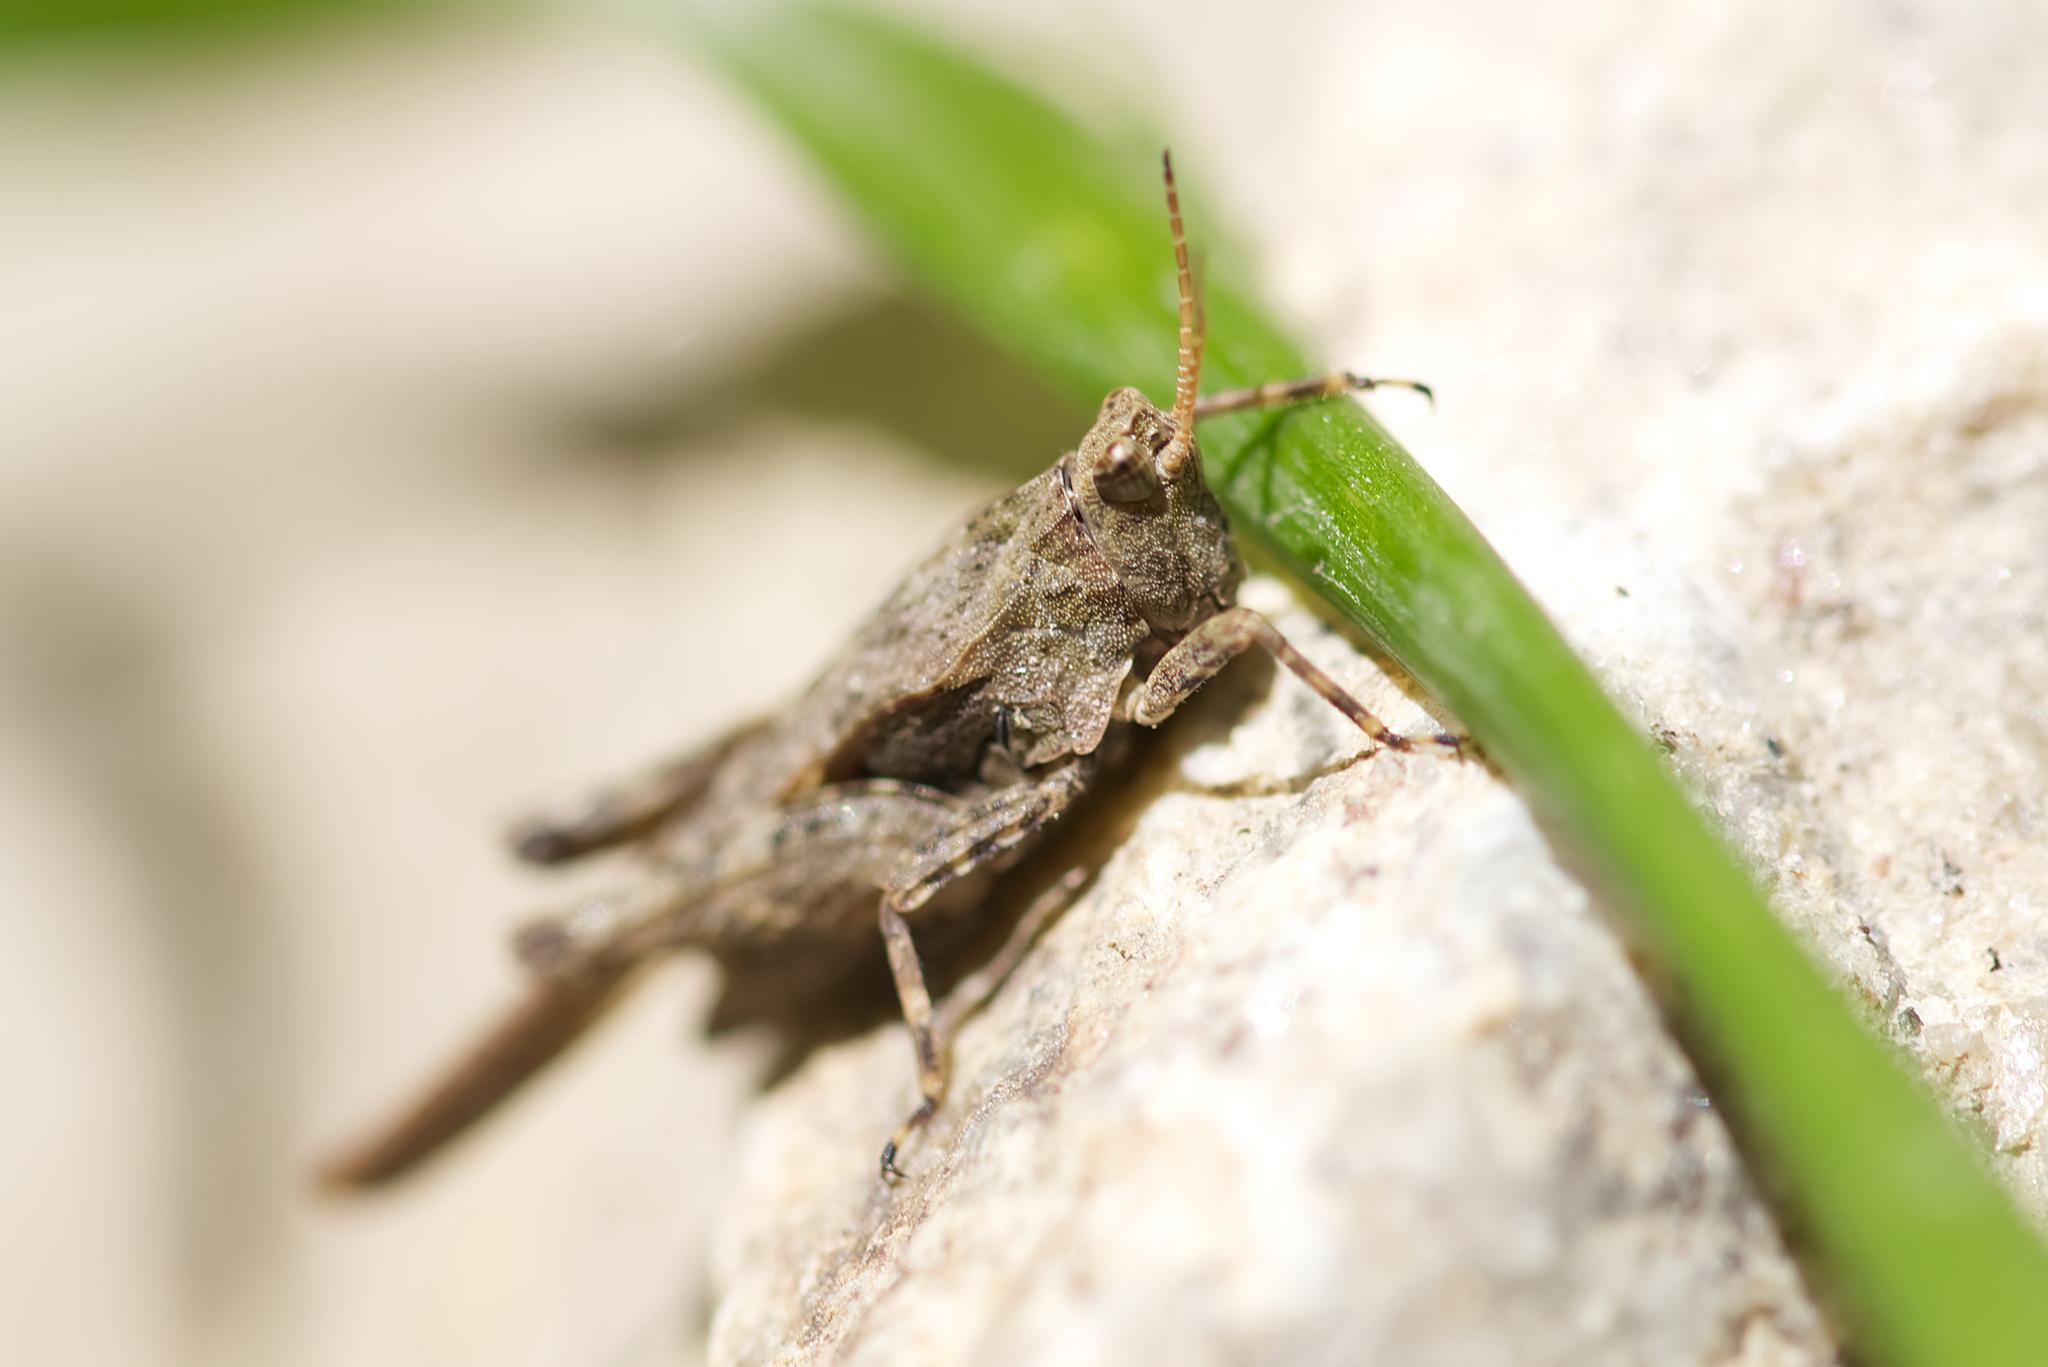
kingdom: Animalia
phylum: Arthropoda
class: Insecta
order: Orthoptera
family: Tetrigidae
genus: Tetrix
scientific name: Tetrix subulata
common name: Slender ground-hopper
